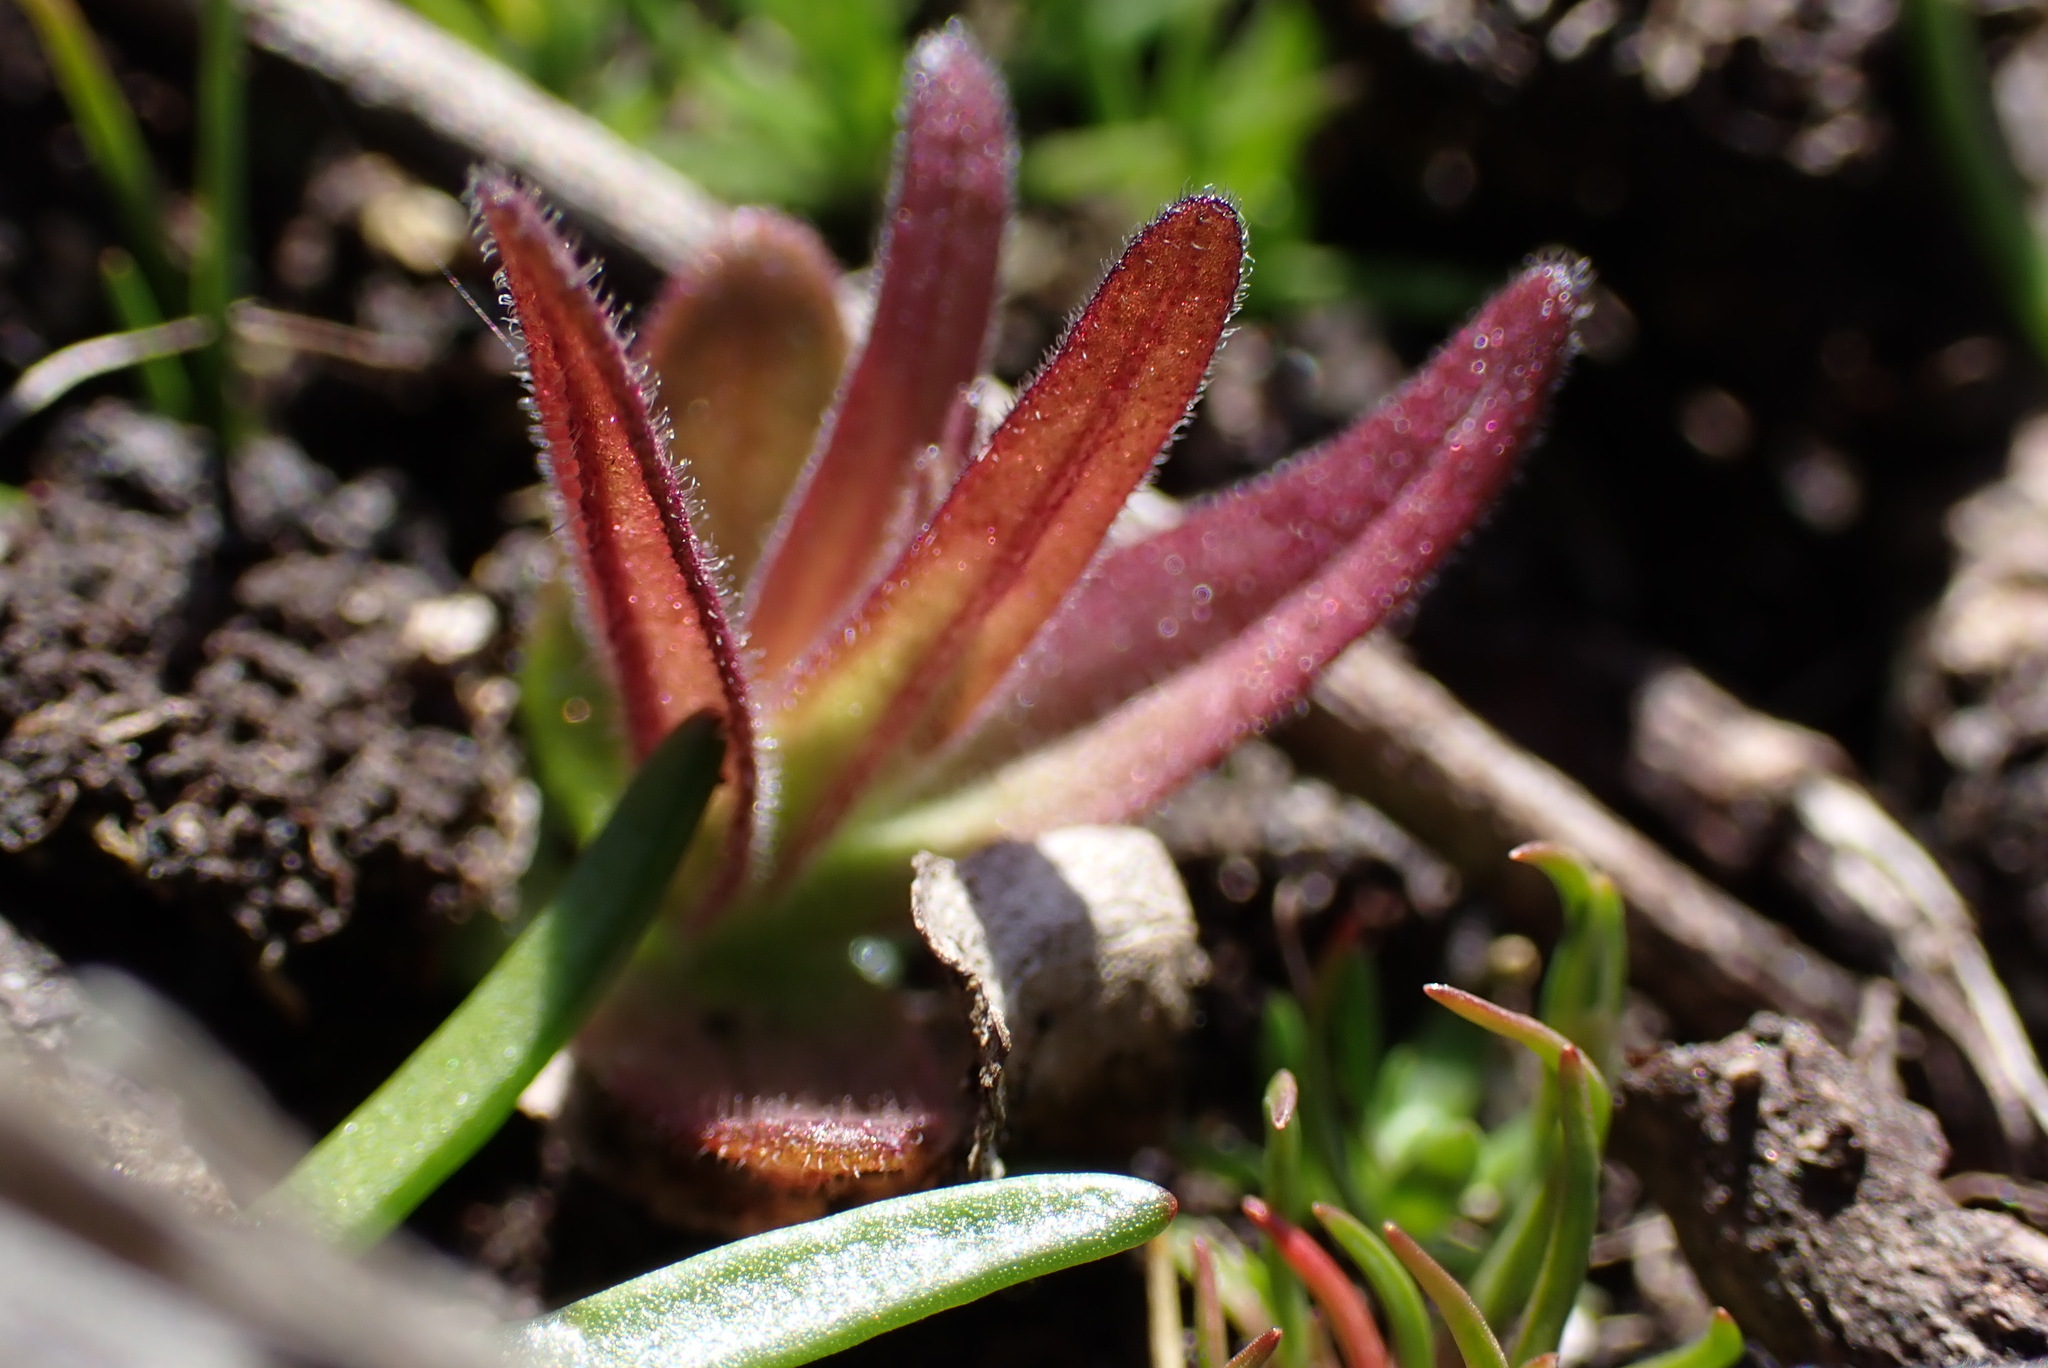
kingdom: Plantae
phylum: Tracheophyta
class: Magnoliopsida
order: Lamiales
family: Orobanchaceae
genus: Castilleja
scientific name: Castilleja victoriae
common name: Victoria paintbrush
